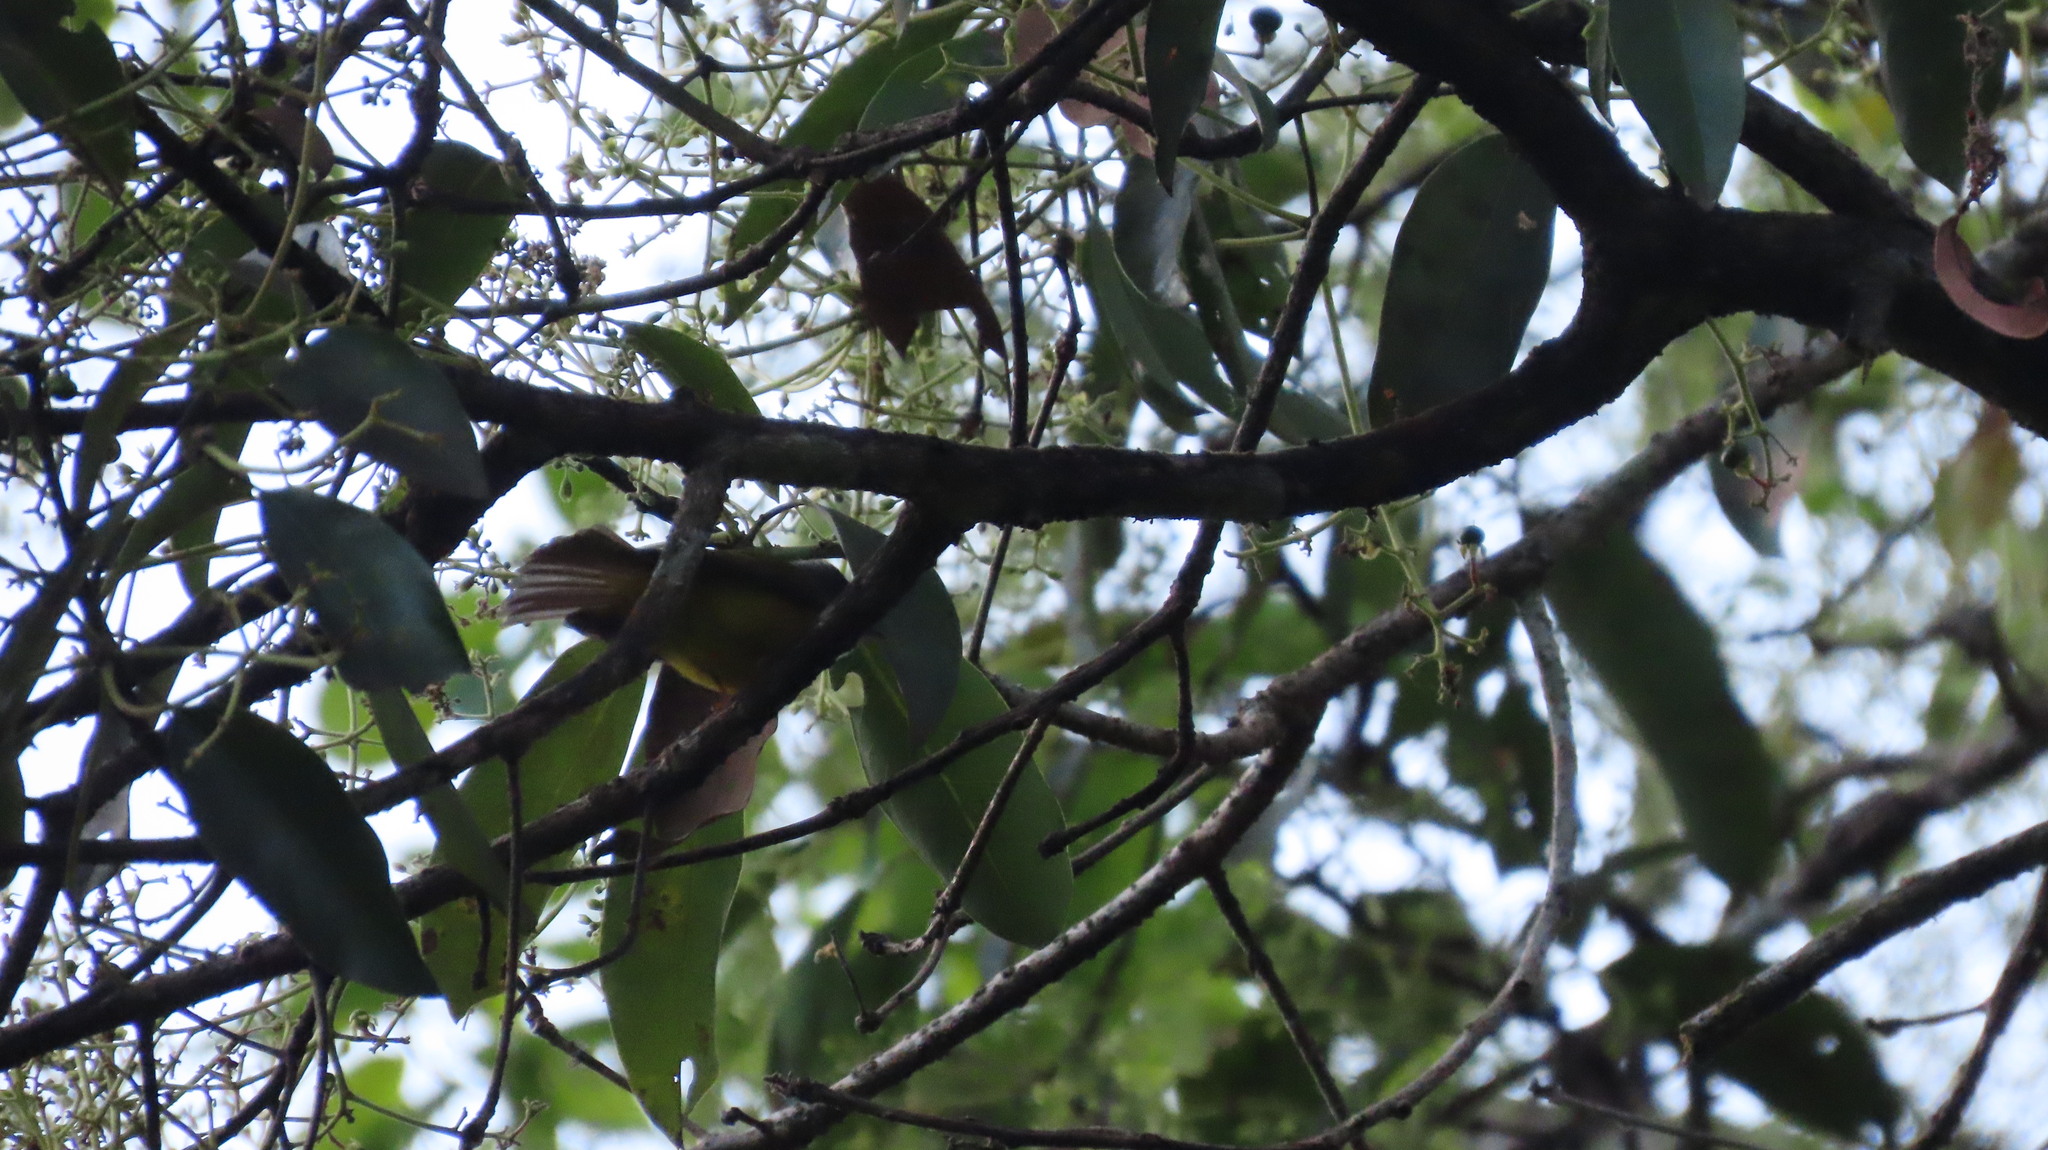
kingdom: Animalia
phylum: Chordata
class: Aves
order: Passeriformes
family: Stenostiridae
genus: Culicicapa
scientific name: Culicicapa ceylonensis
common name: Grey-headed canary-flycatcher
